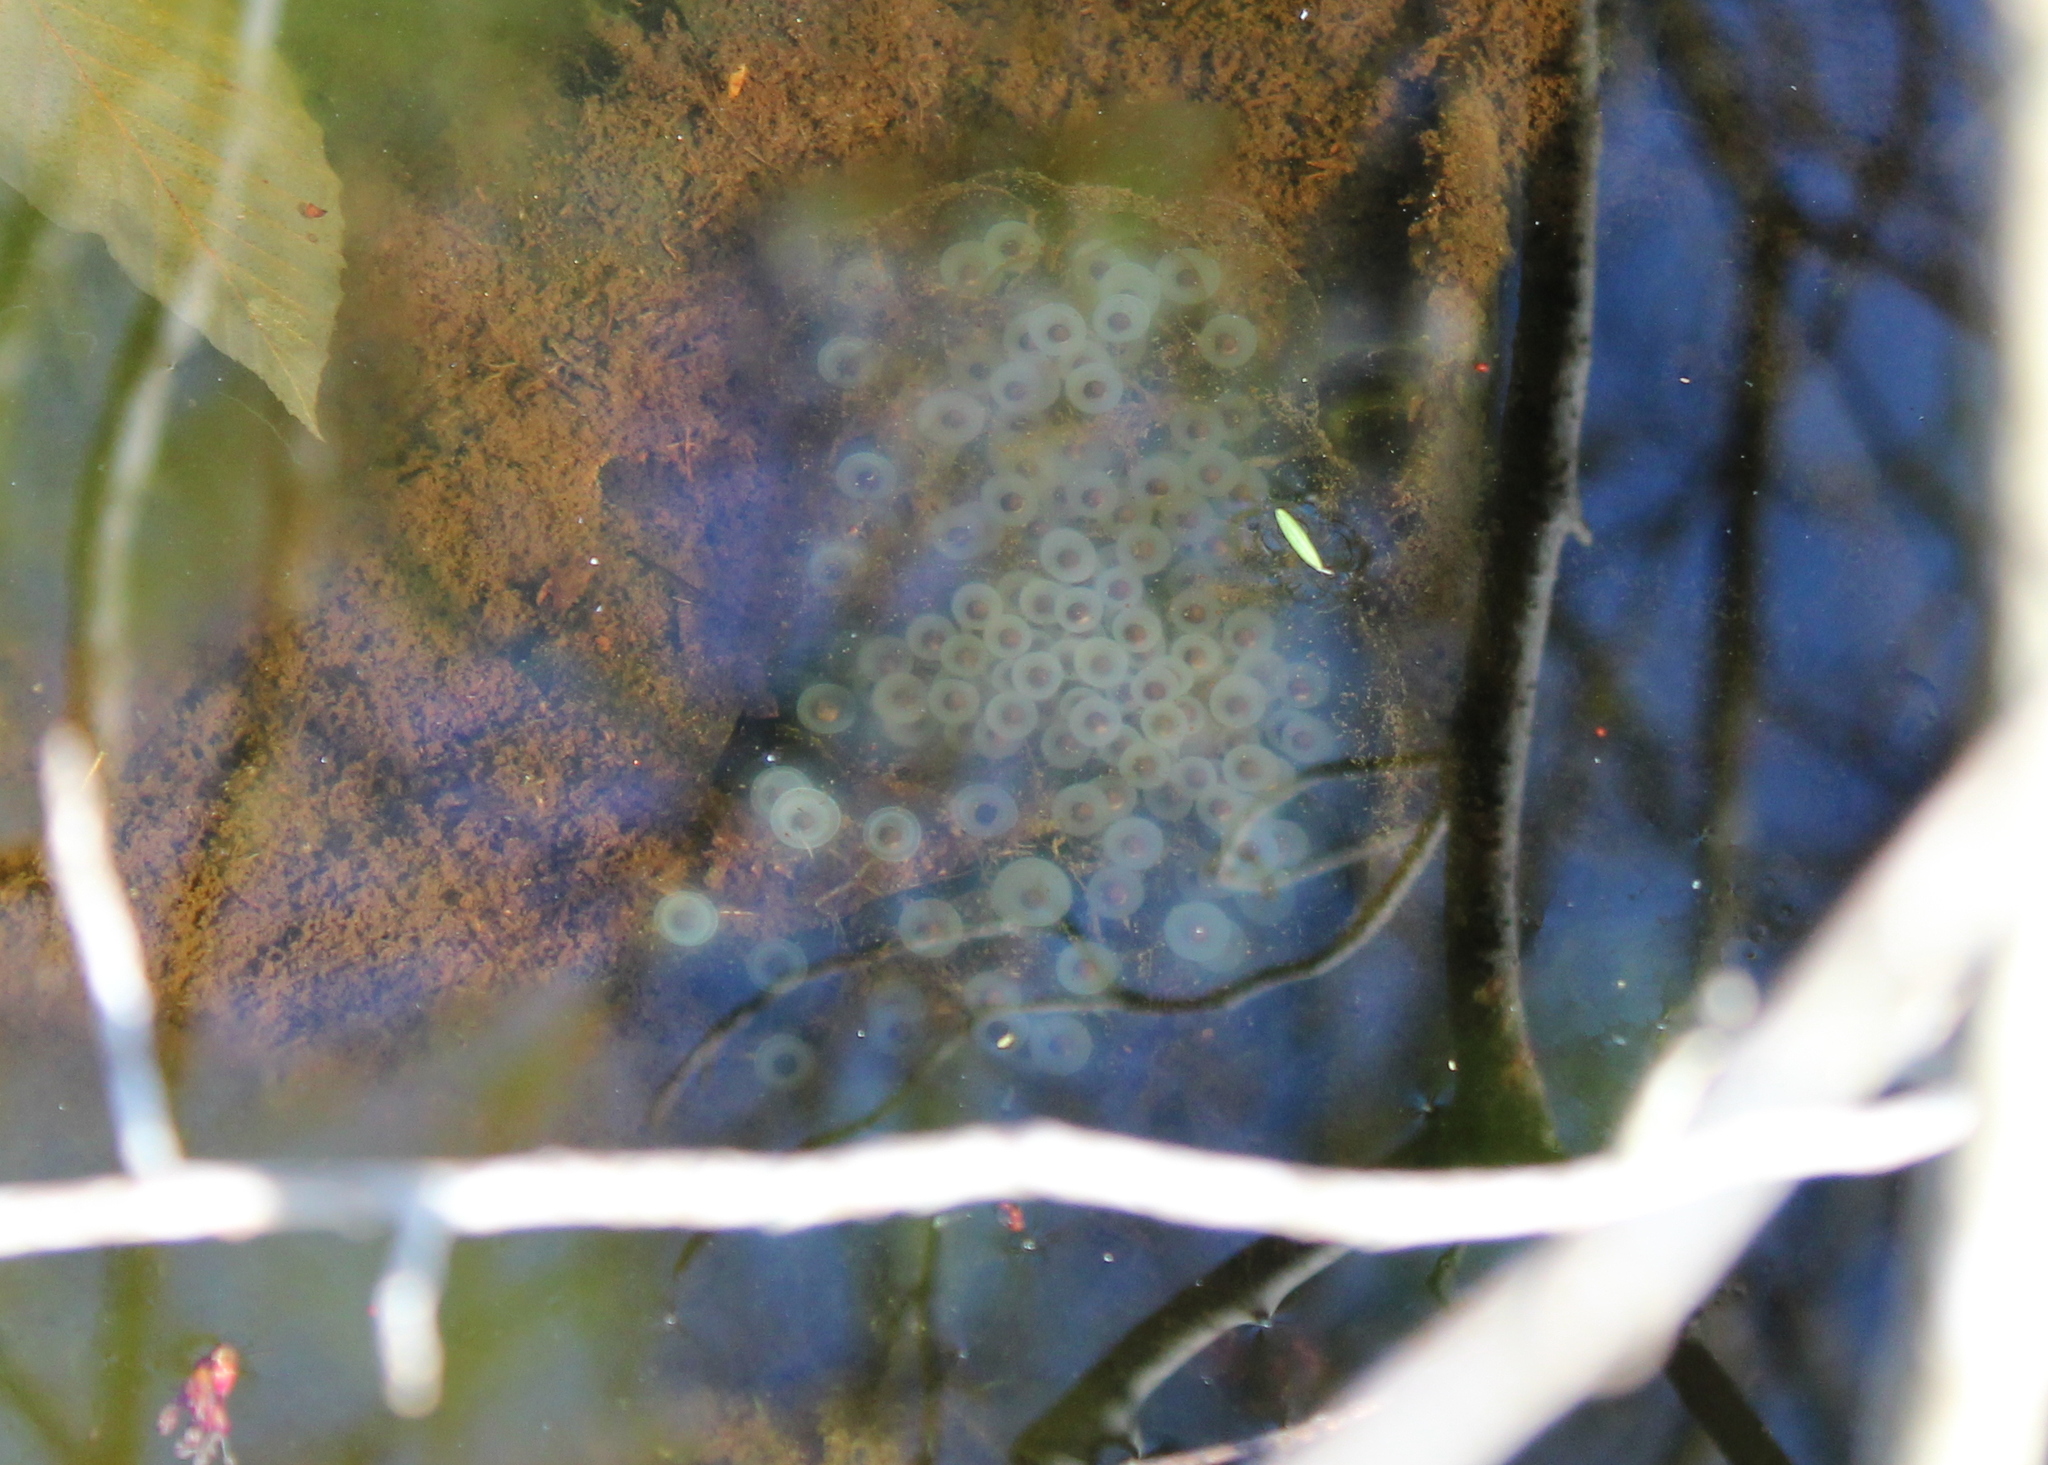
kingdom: Animalia
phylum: Chordata
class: Amphibia
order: Caudata
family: Ambystomatidae
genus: Ambystoma
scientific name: Ambystoma maculatum
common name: Spotted salamander
